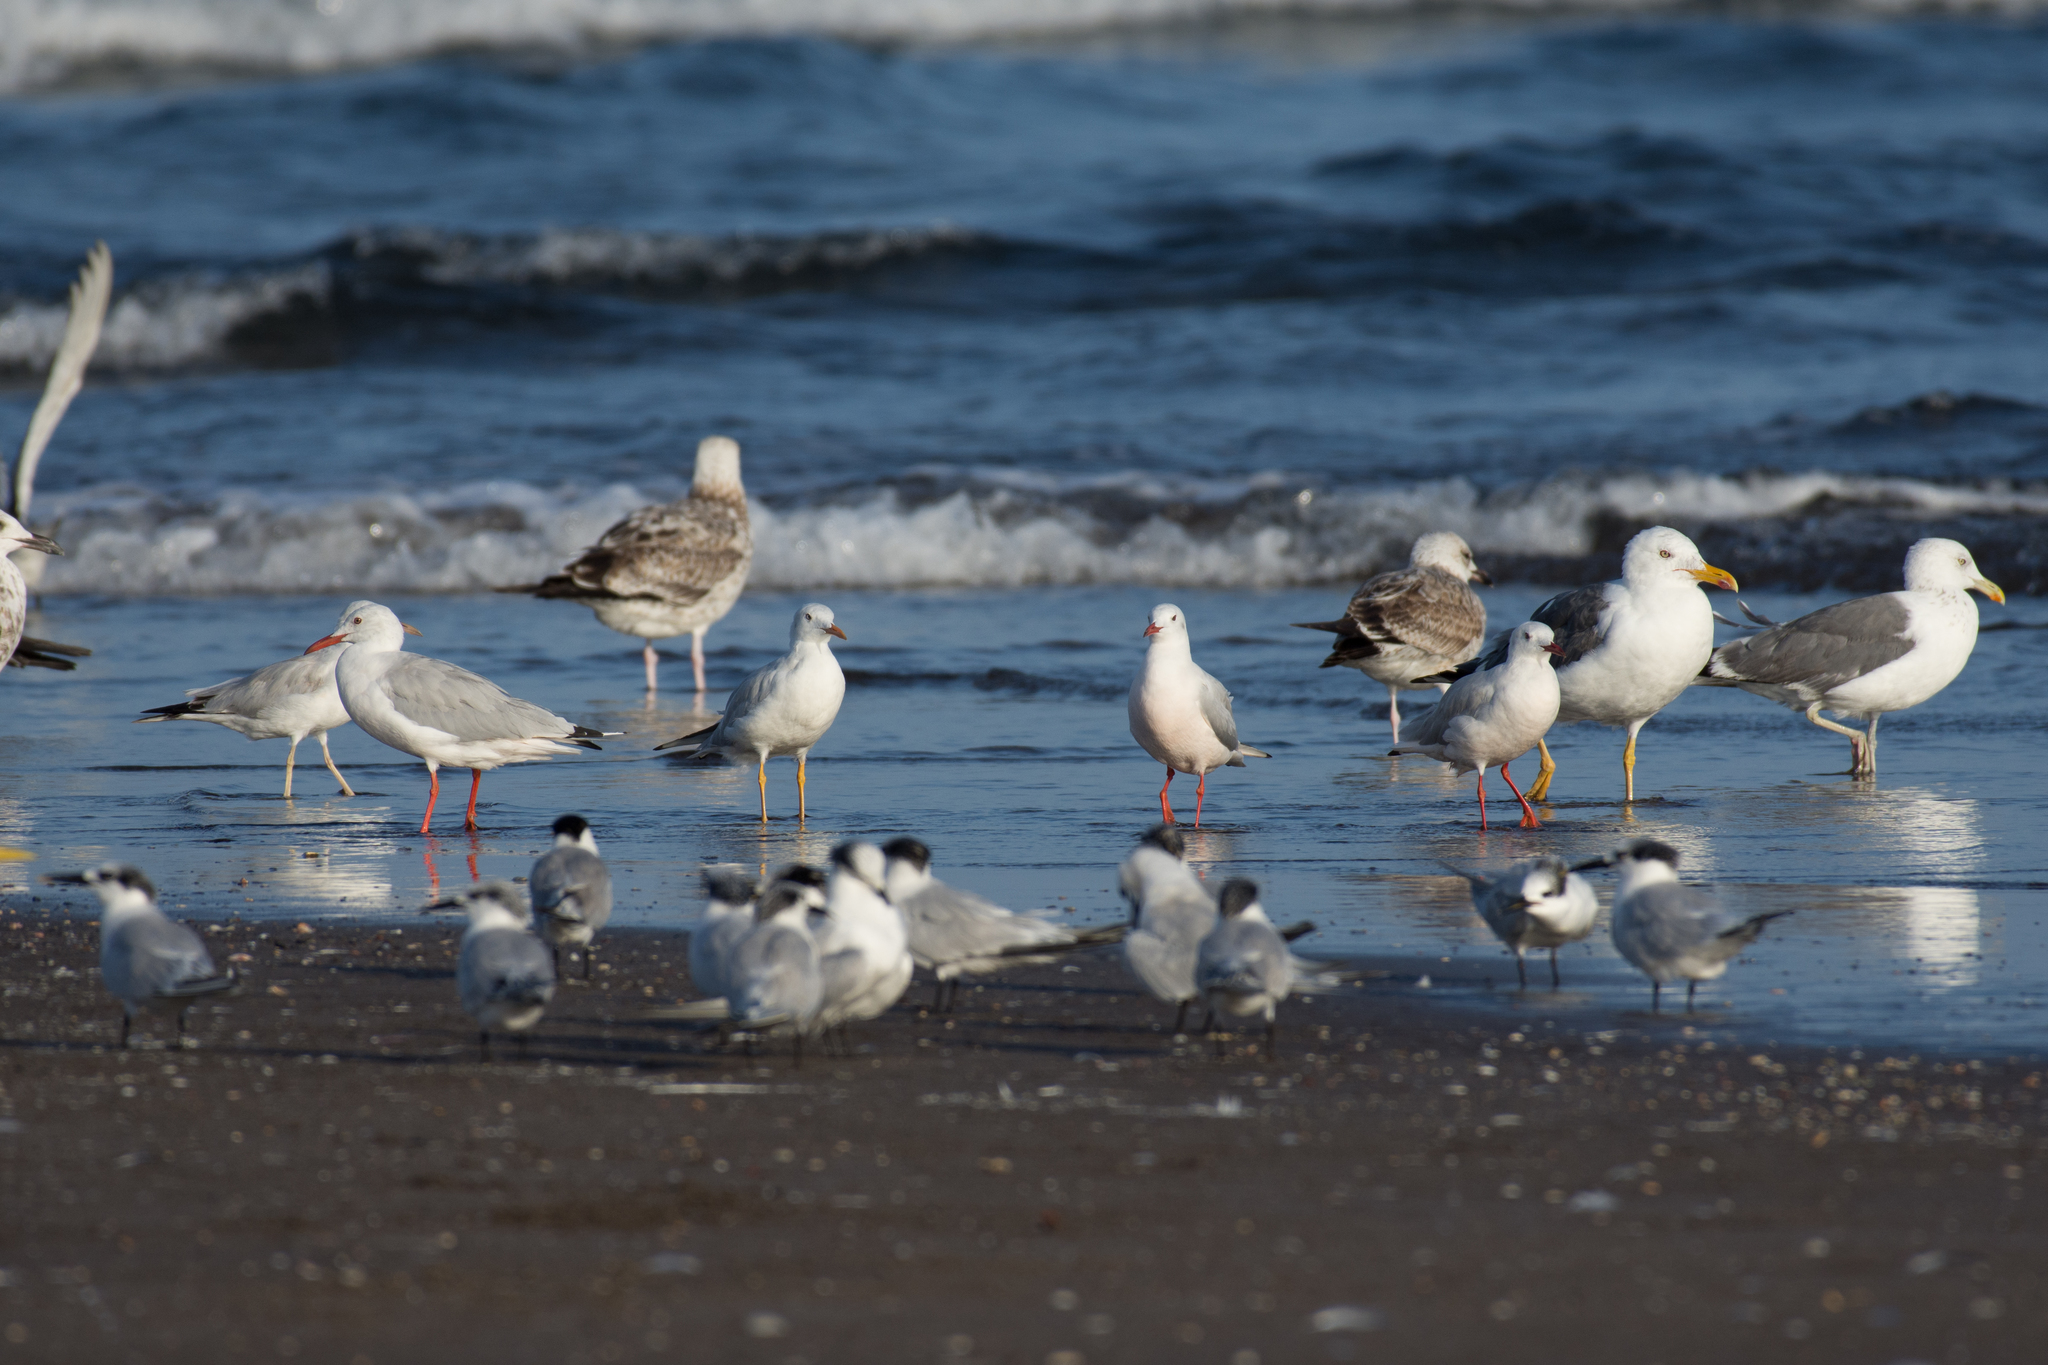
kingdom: Animalia
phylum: Chordata
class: Aves
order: Charadriiformes
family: Laridae
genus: Chroicocephalus
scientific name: Chroicocephalus genei
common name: Slender-billed gull
